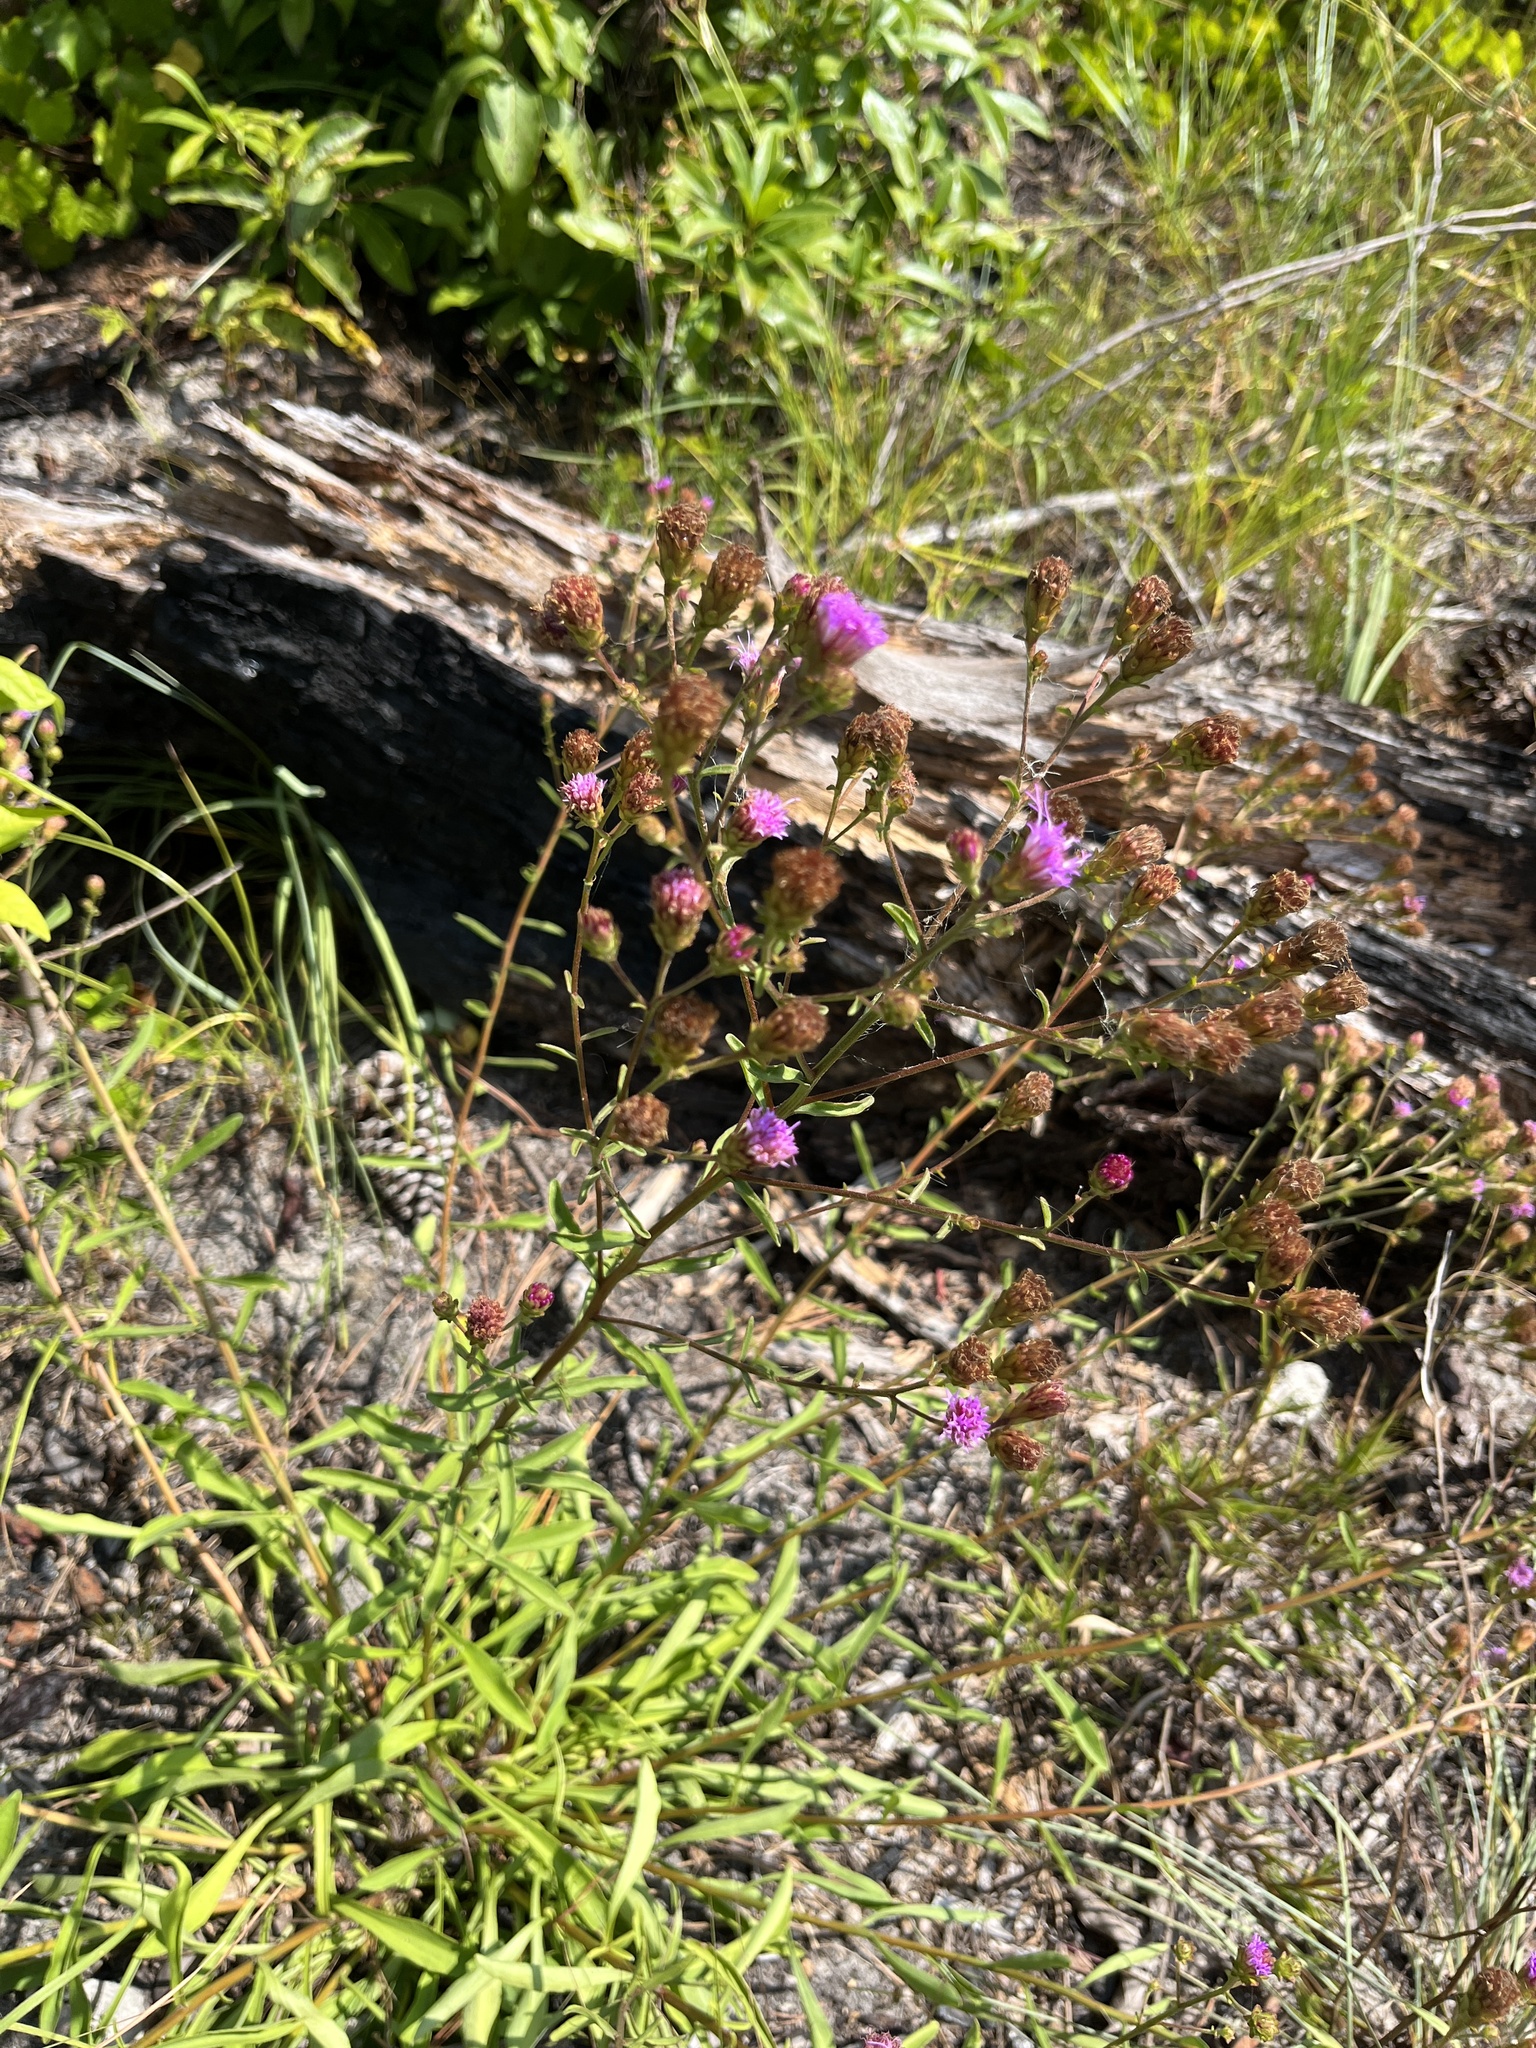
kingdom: Plantae
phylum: Tracheophyta
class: Magnoliopsida
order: Asterales
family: Asteraceae
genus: Carphephorus
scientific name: Carphephorus bellidifolius
